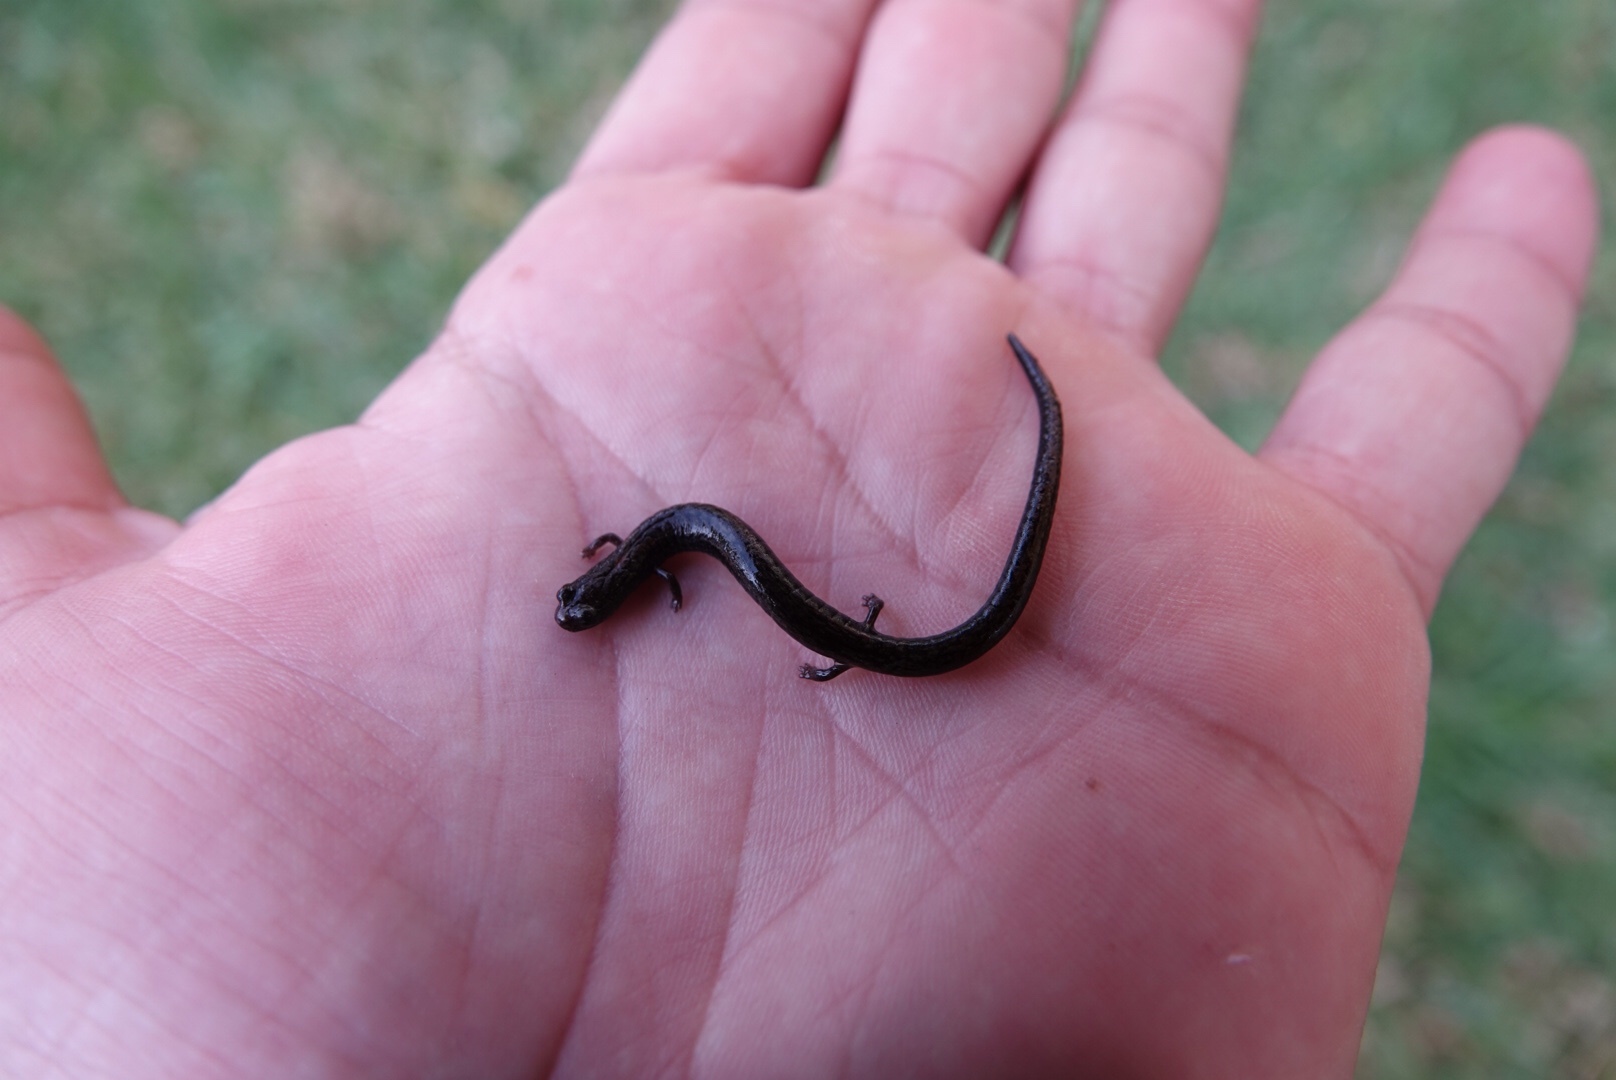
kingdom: Animalia
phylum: Chordata
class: Amphibia
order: Caudata
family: Plethodontidae
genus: Batrachoseps
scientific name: Batrachoseps nigriventris
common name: Black-bellied slender salamander
